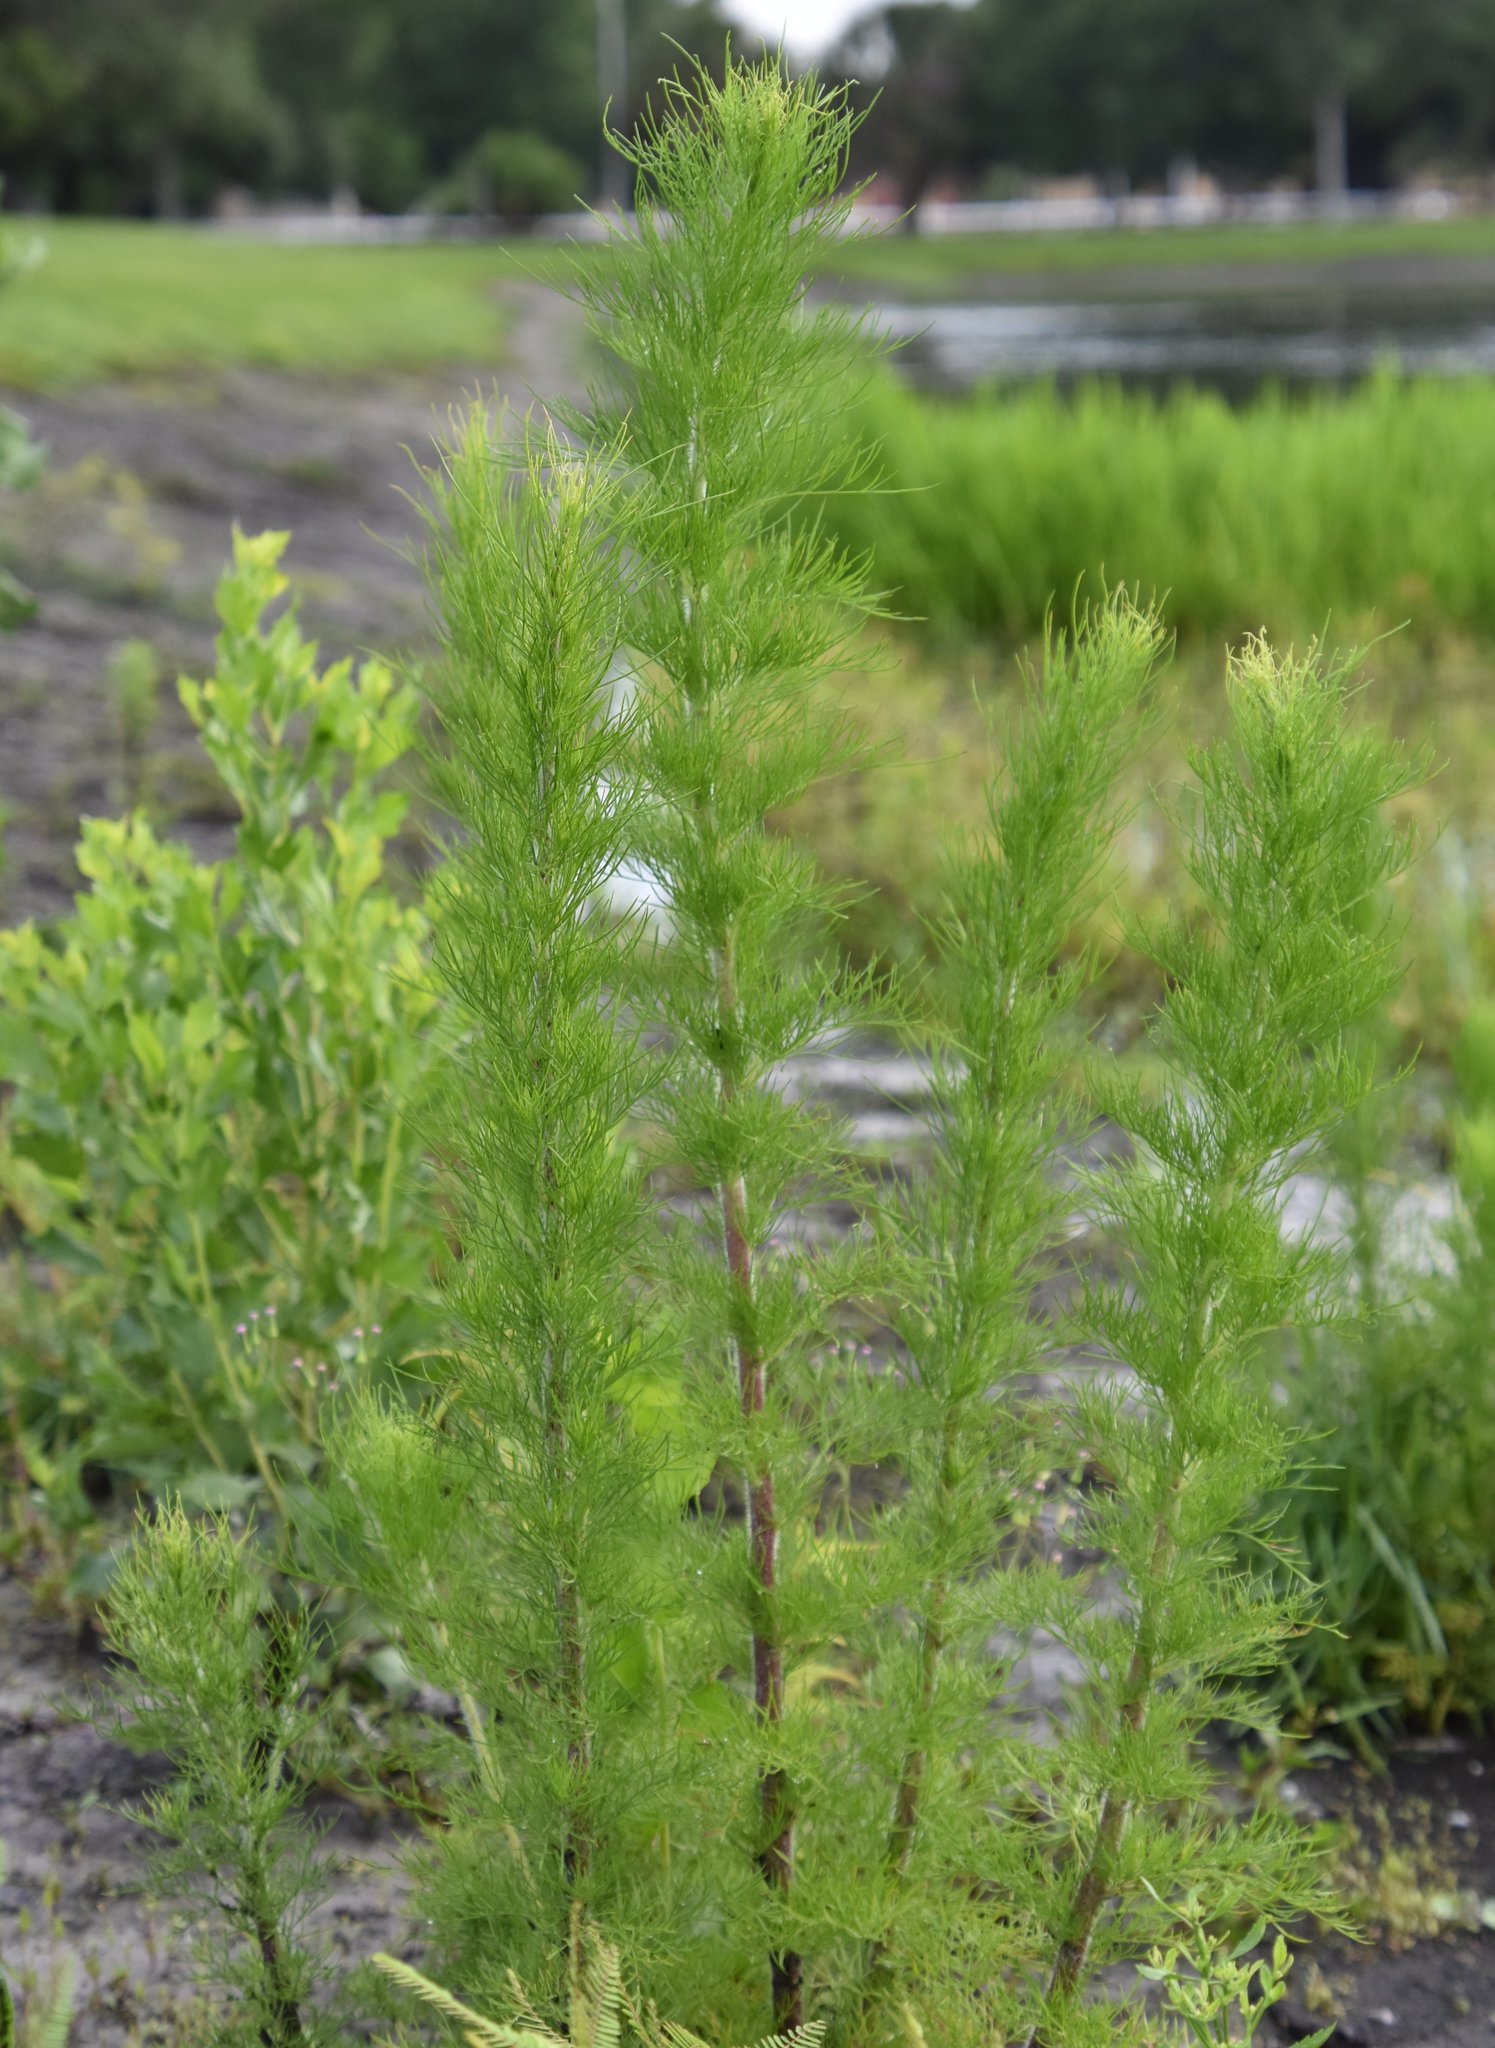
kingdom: Plantae
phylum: Tracheophyta
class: Magnoliopsida
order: Asterales
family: Asteraceae
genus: Eupatorium
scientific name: Eupatorium capillifolium
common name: Dog-fennel
